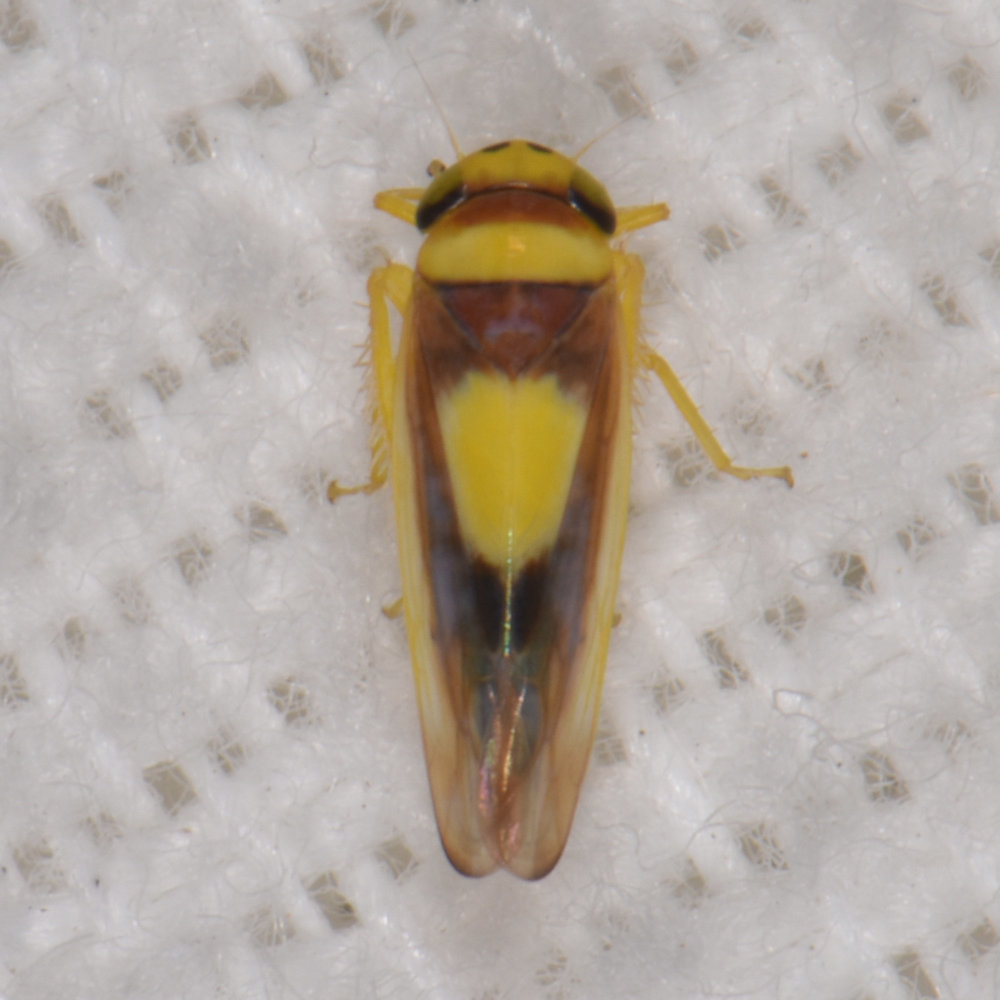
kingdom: Animalia
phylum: Arthropoda
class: Insecta
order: Hemiptera
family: Cicadellidae
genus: Colladonus
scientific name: Colladonus clitellarius
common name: The saddleback leafhopper
